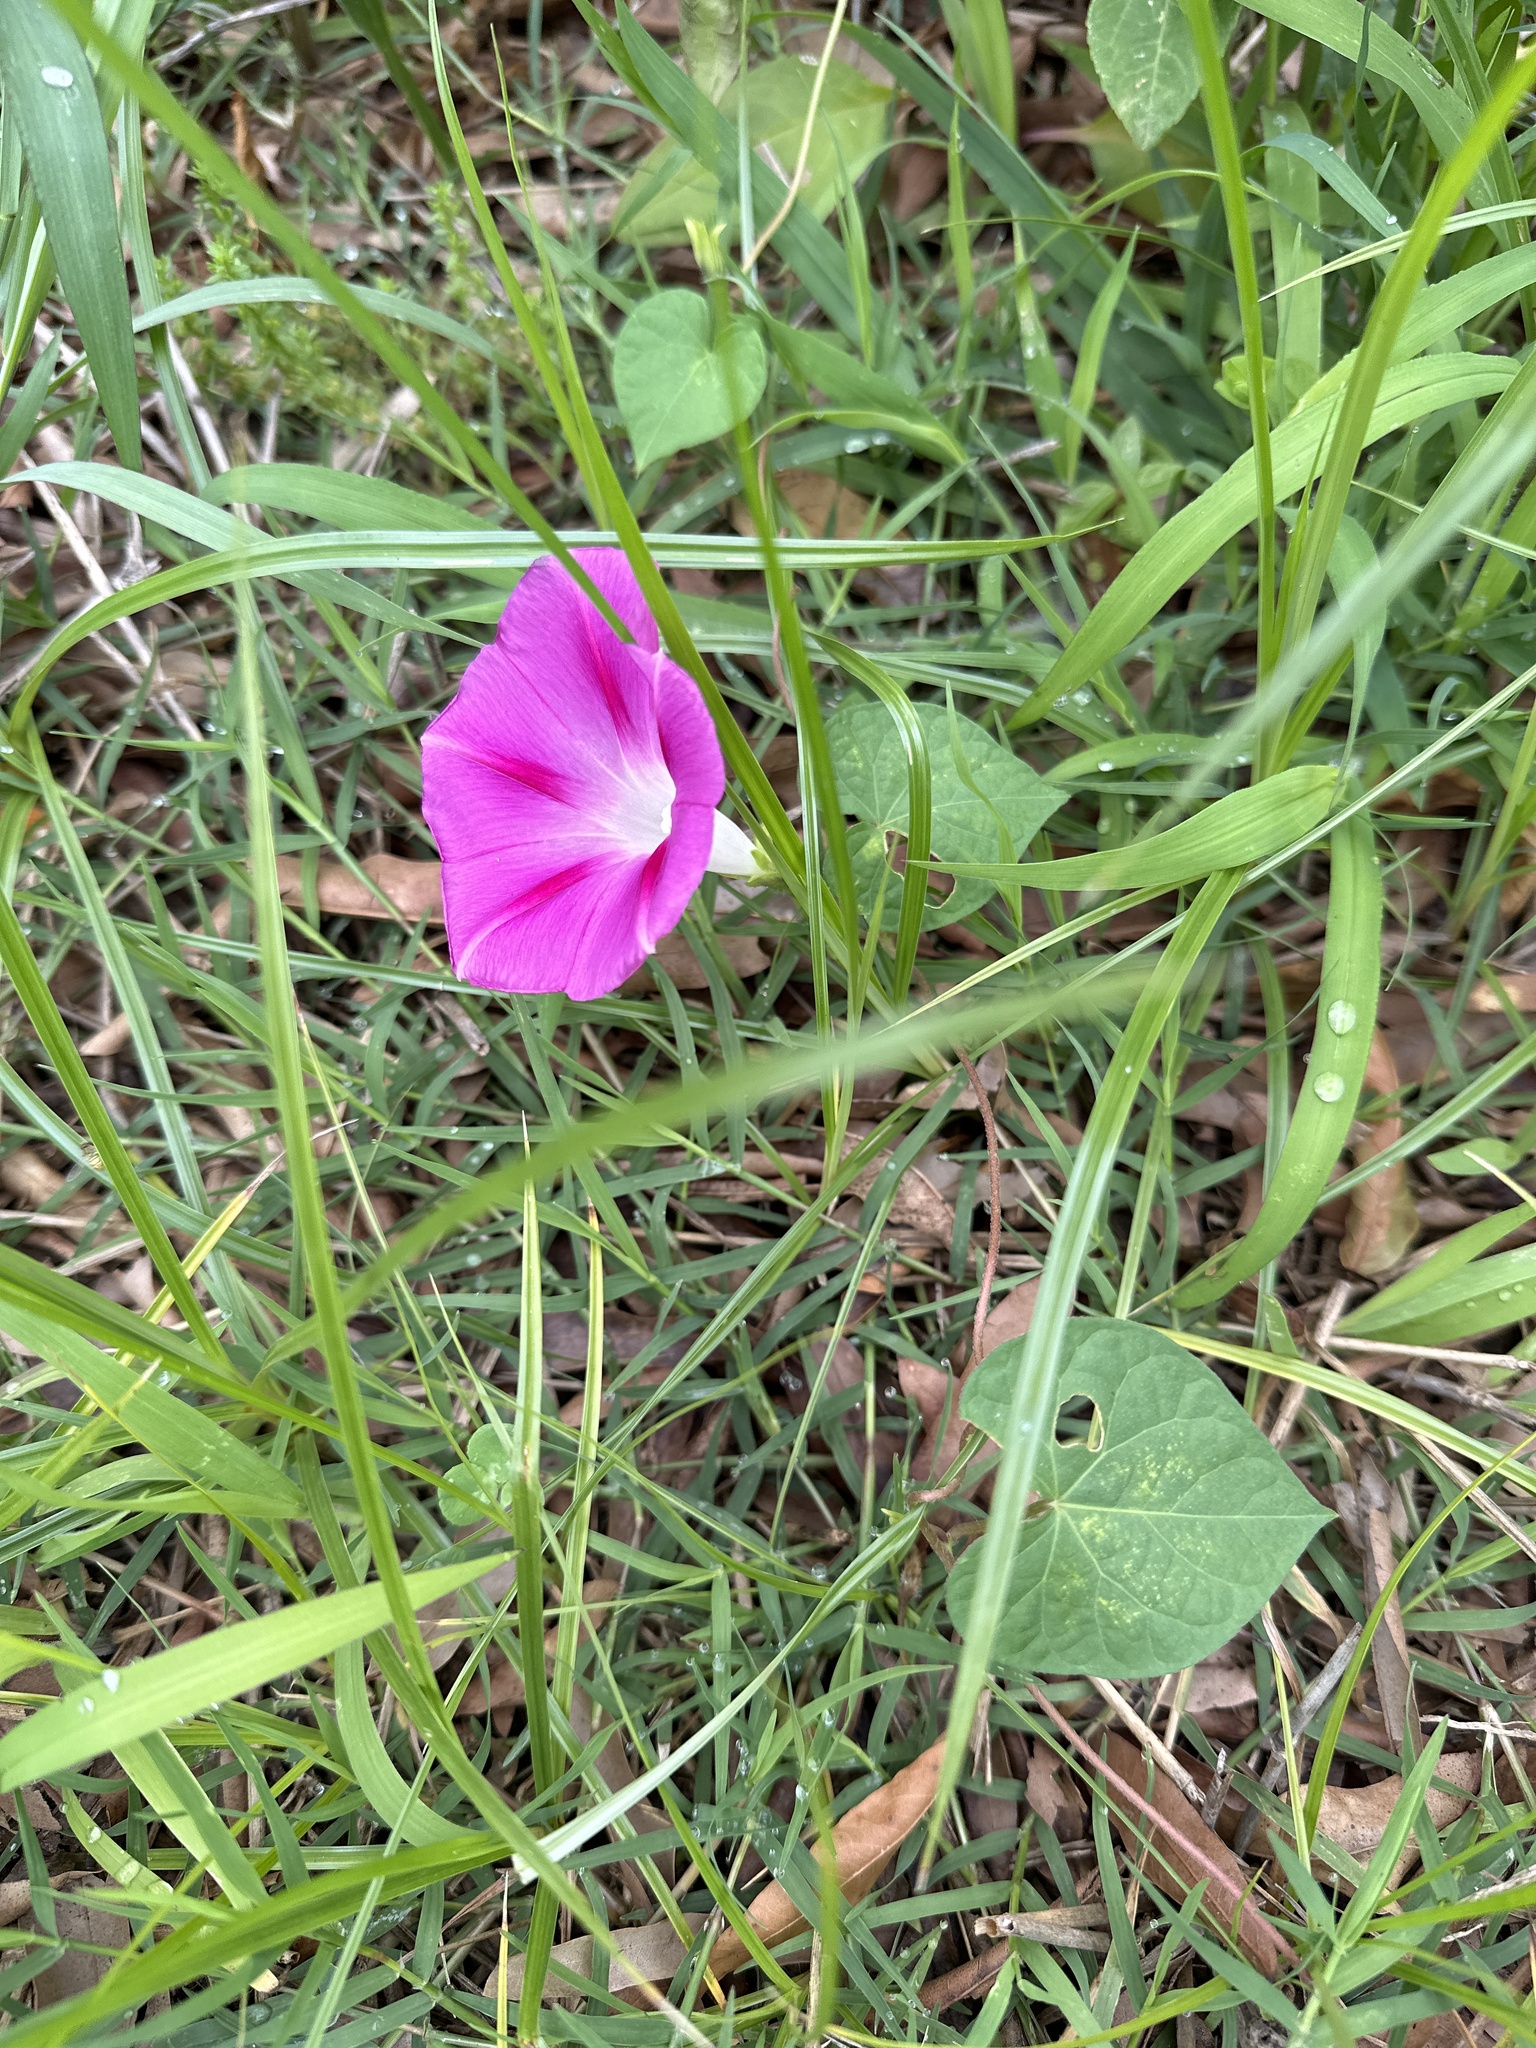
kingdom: Plantae
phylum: Tracheophyta
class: Magnoliopsida
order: Solanales
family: Convolvulaceae
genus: Ipomoea
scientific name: Ipomoea purpurea
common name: Common morning-glory
